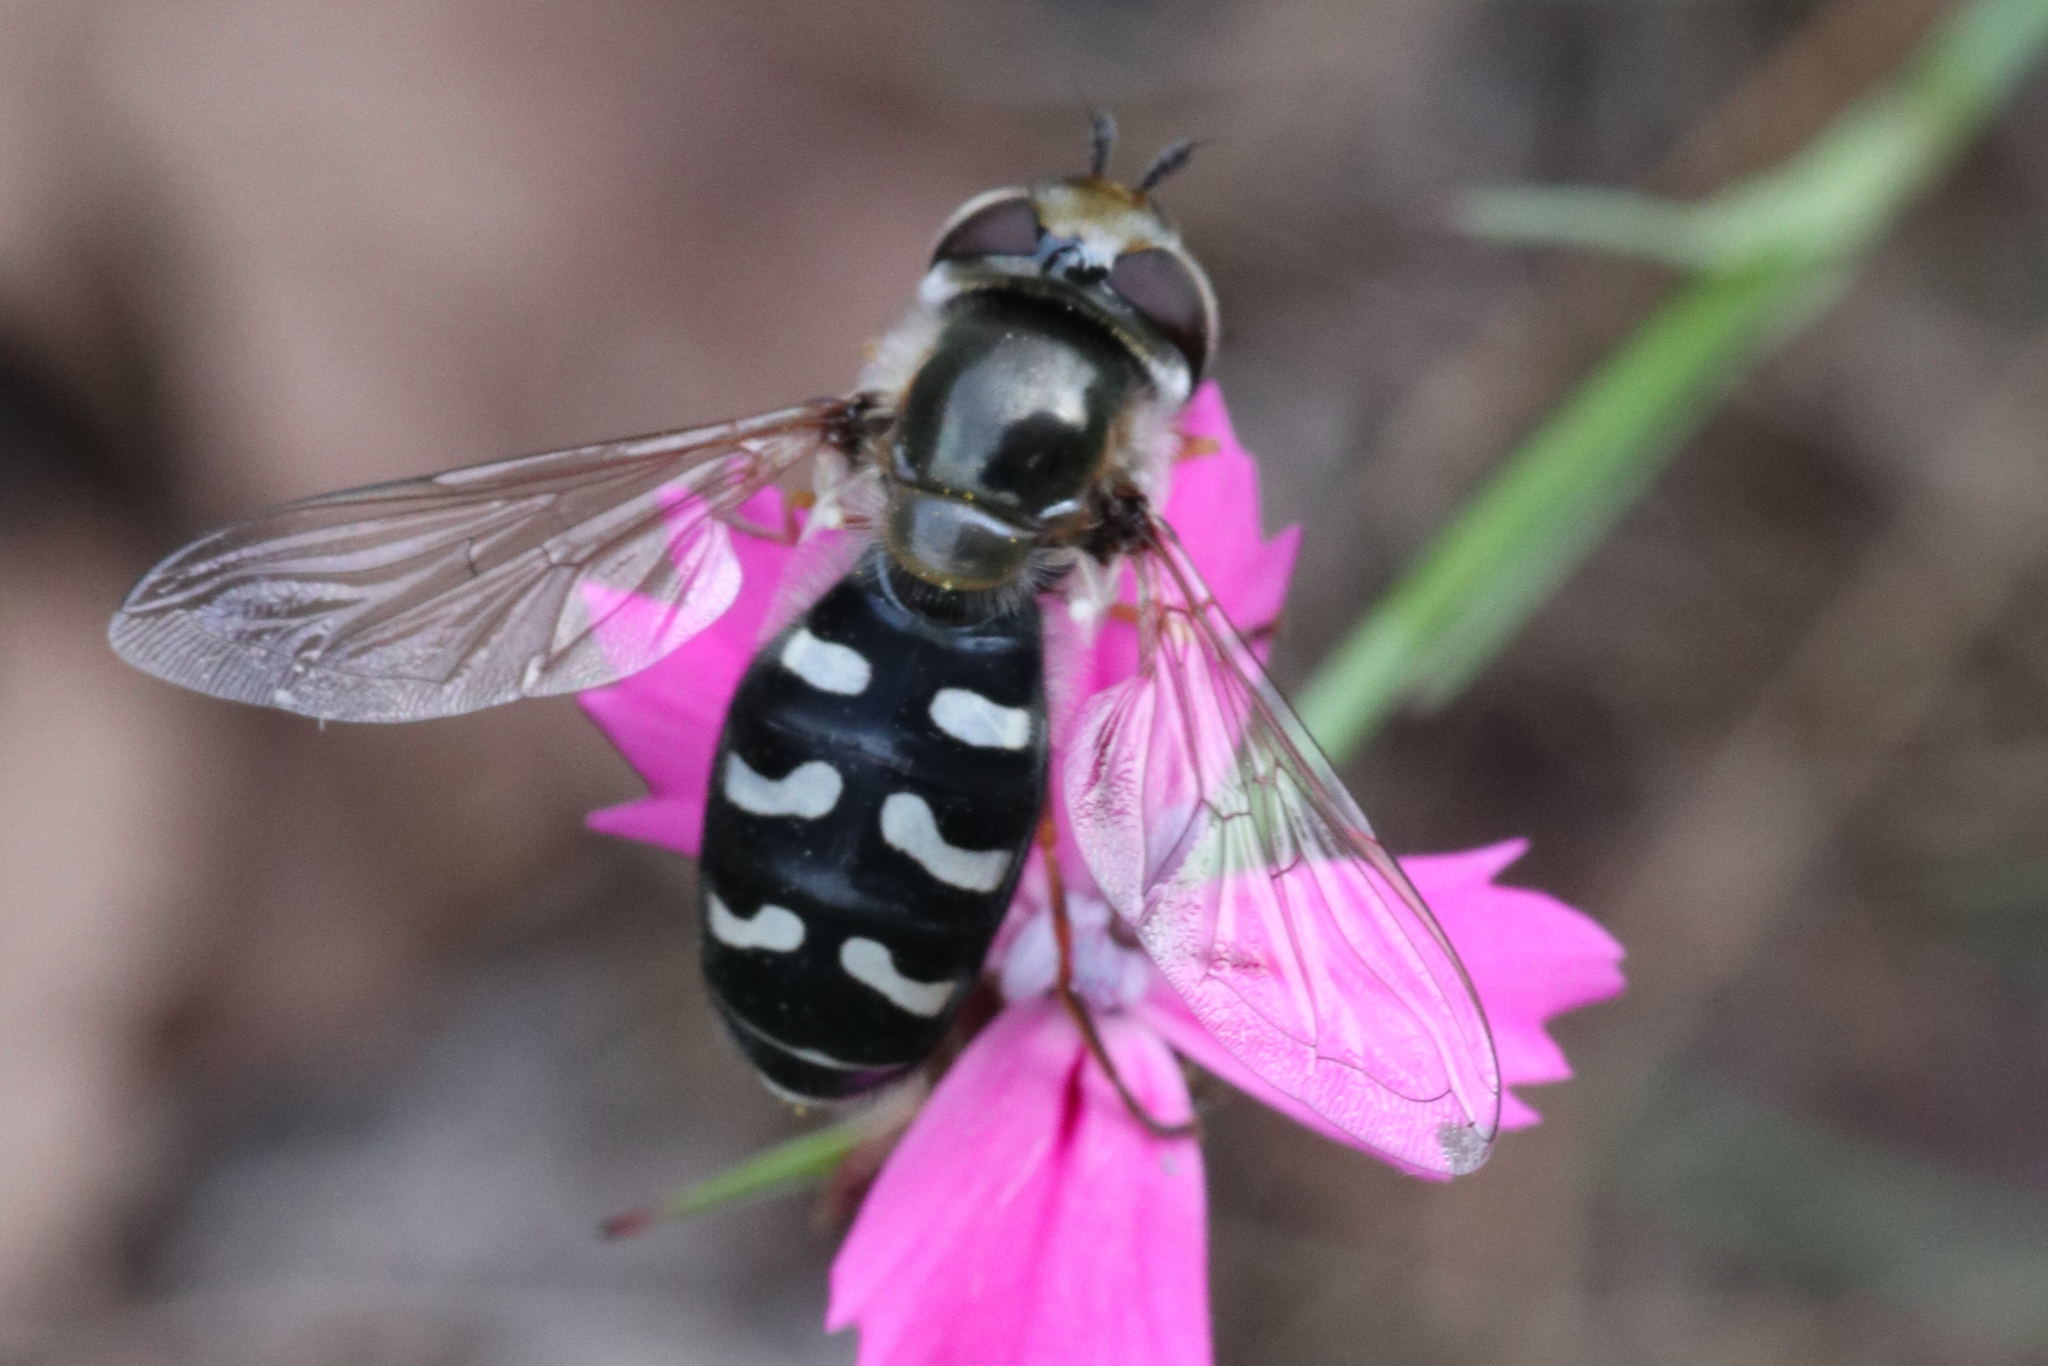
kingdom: Animalia
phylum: Arthropoda
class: Insecta
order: Diptera
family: Syrphidae
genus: Scaeva
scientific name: Scaeva pyrastri
